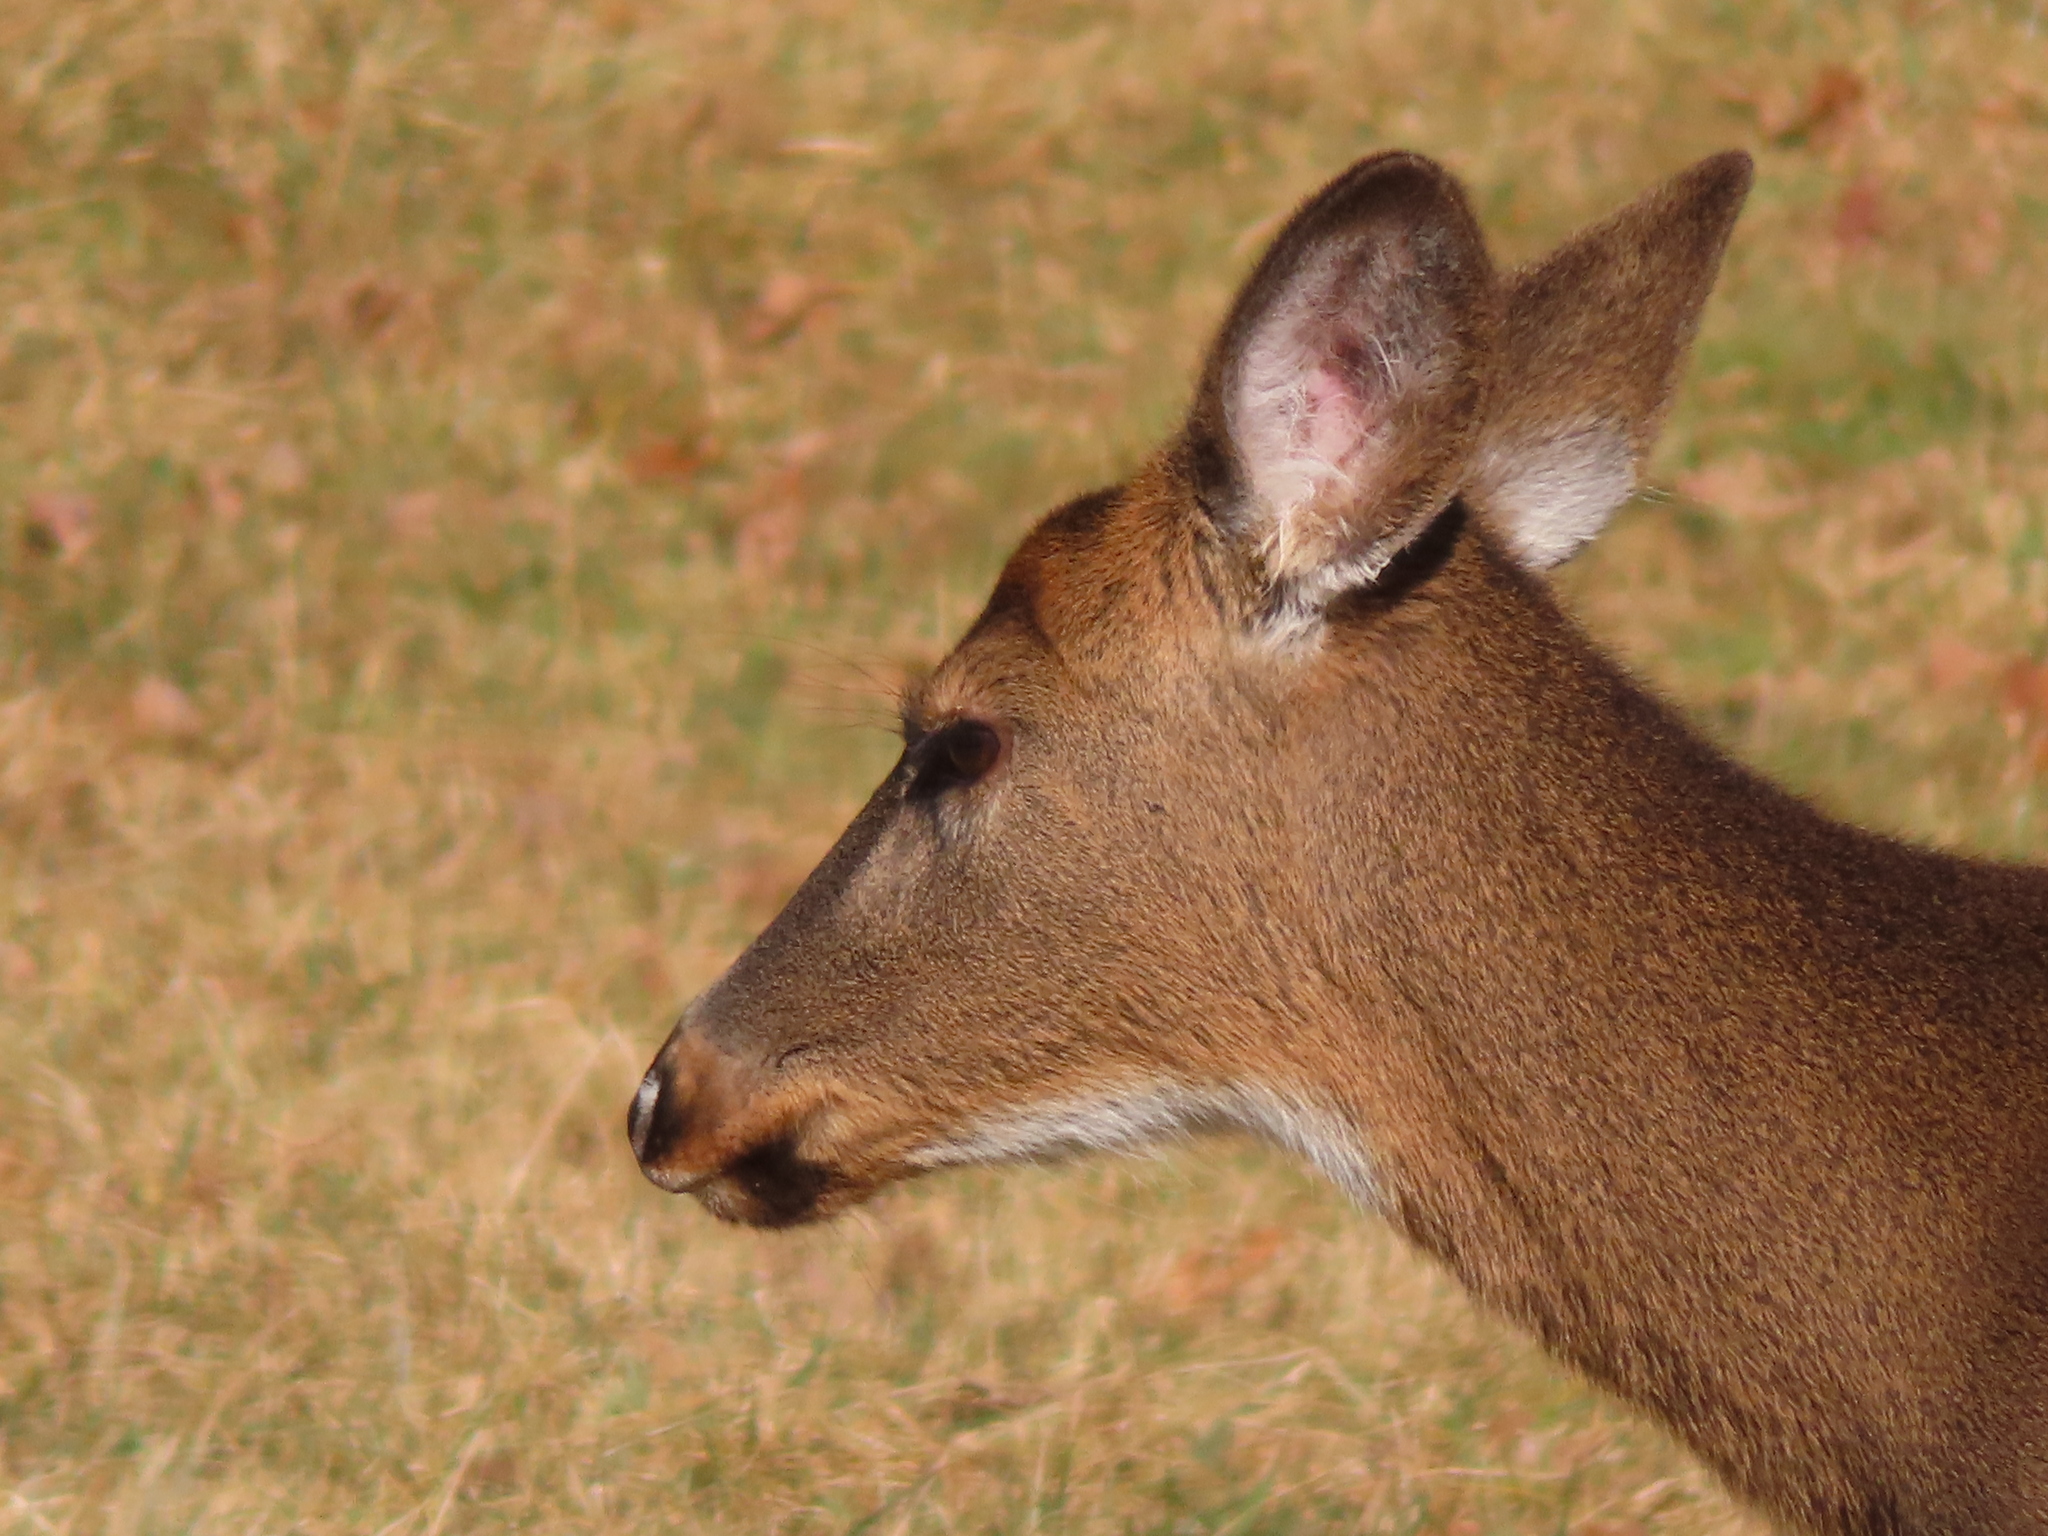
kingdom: Animalia
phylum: Chordata
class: Mammalia
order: Artiodactyla
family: Cervidae
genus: Odocoileus
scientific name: Odocoileus virginianus
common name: White-tailed deer
